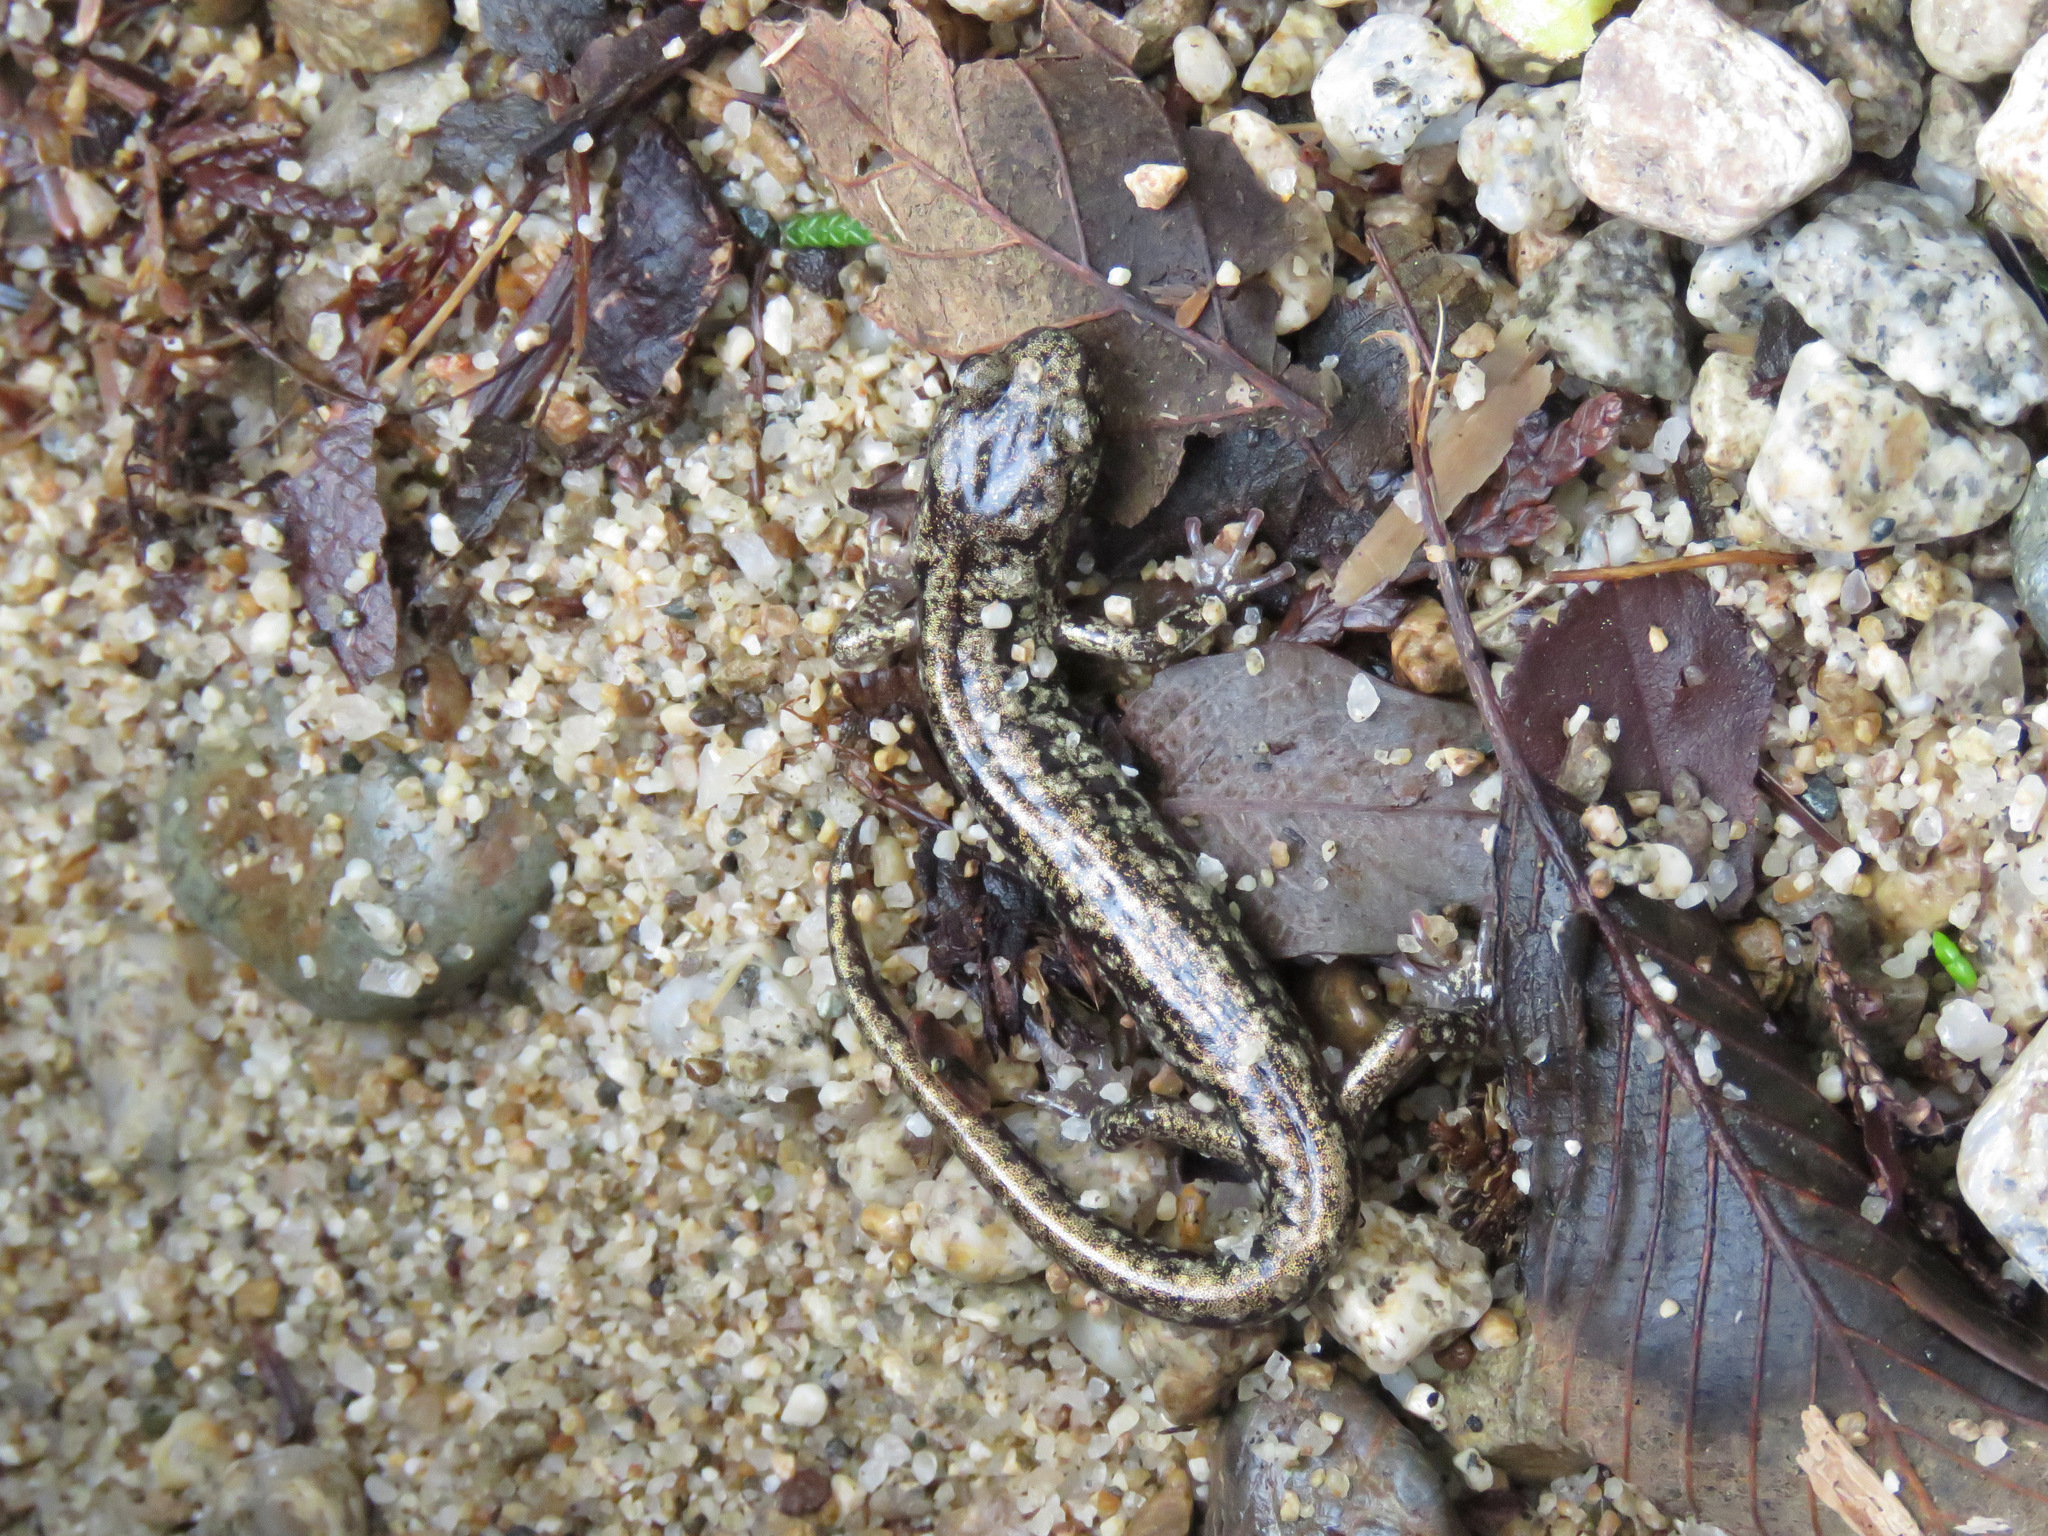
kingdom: Animalia
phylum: Chordata
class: Amphibia
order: Caudata
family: Plethodontidae
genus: Aneides
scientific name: Aneides vagrans
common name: Wandering salamander
